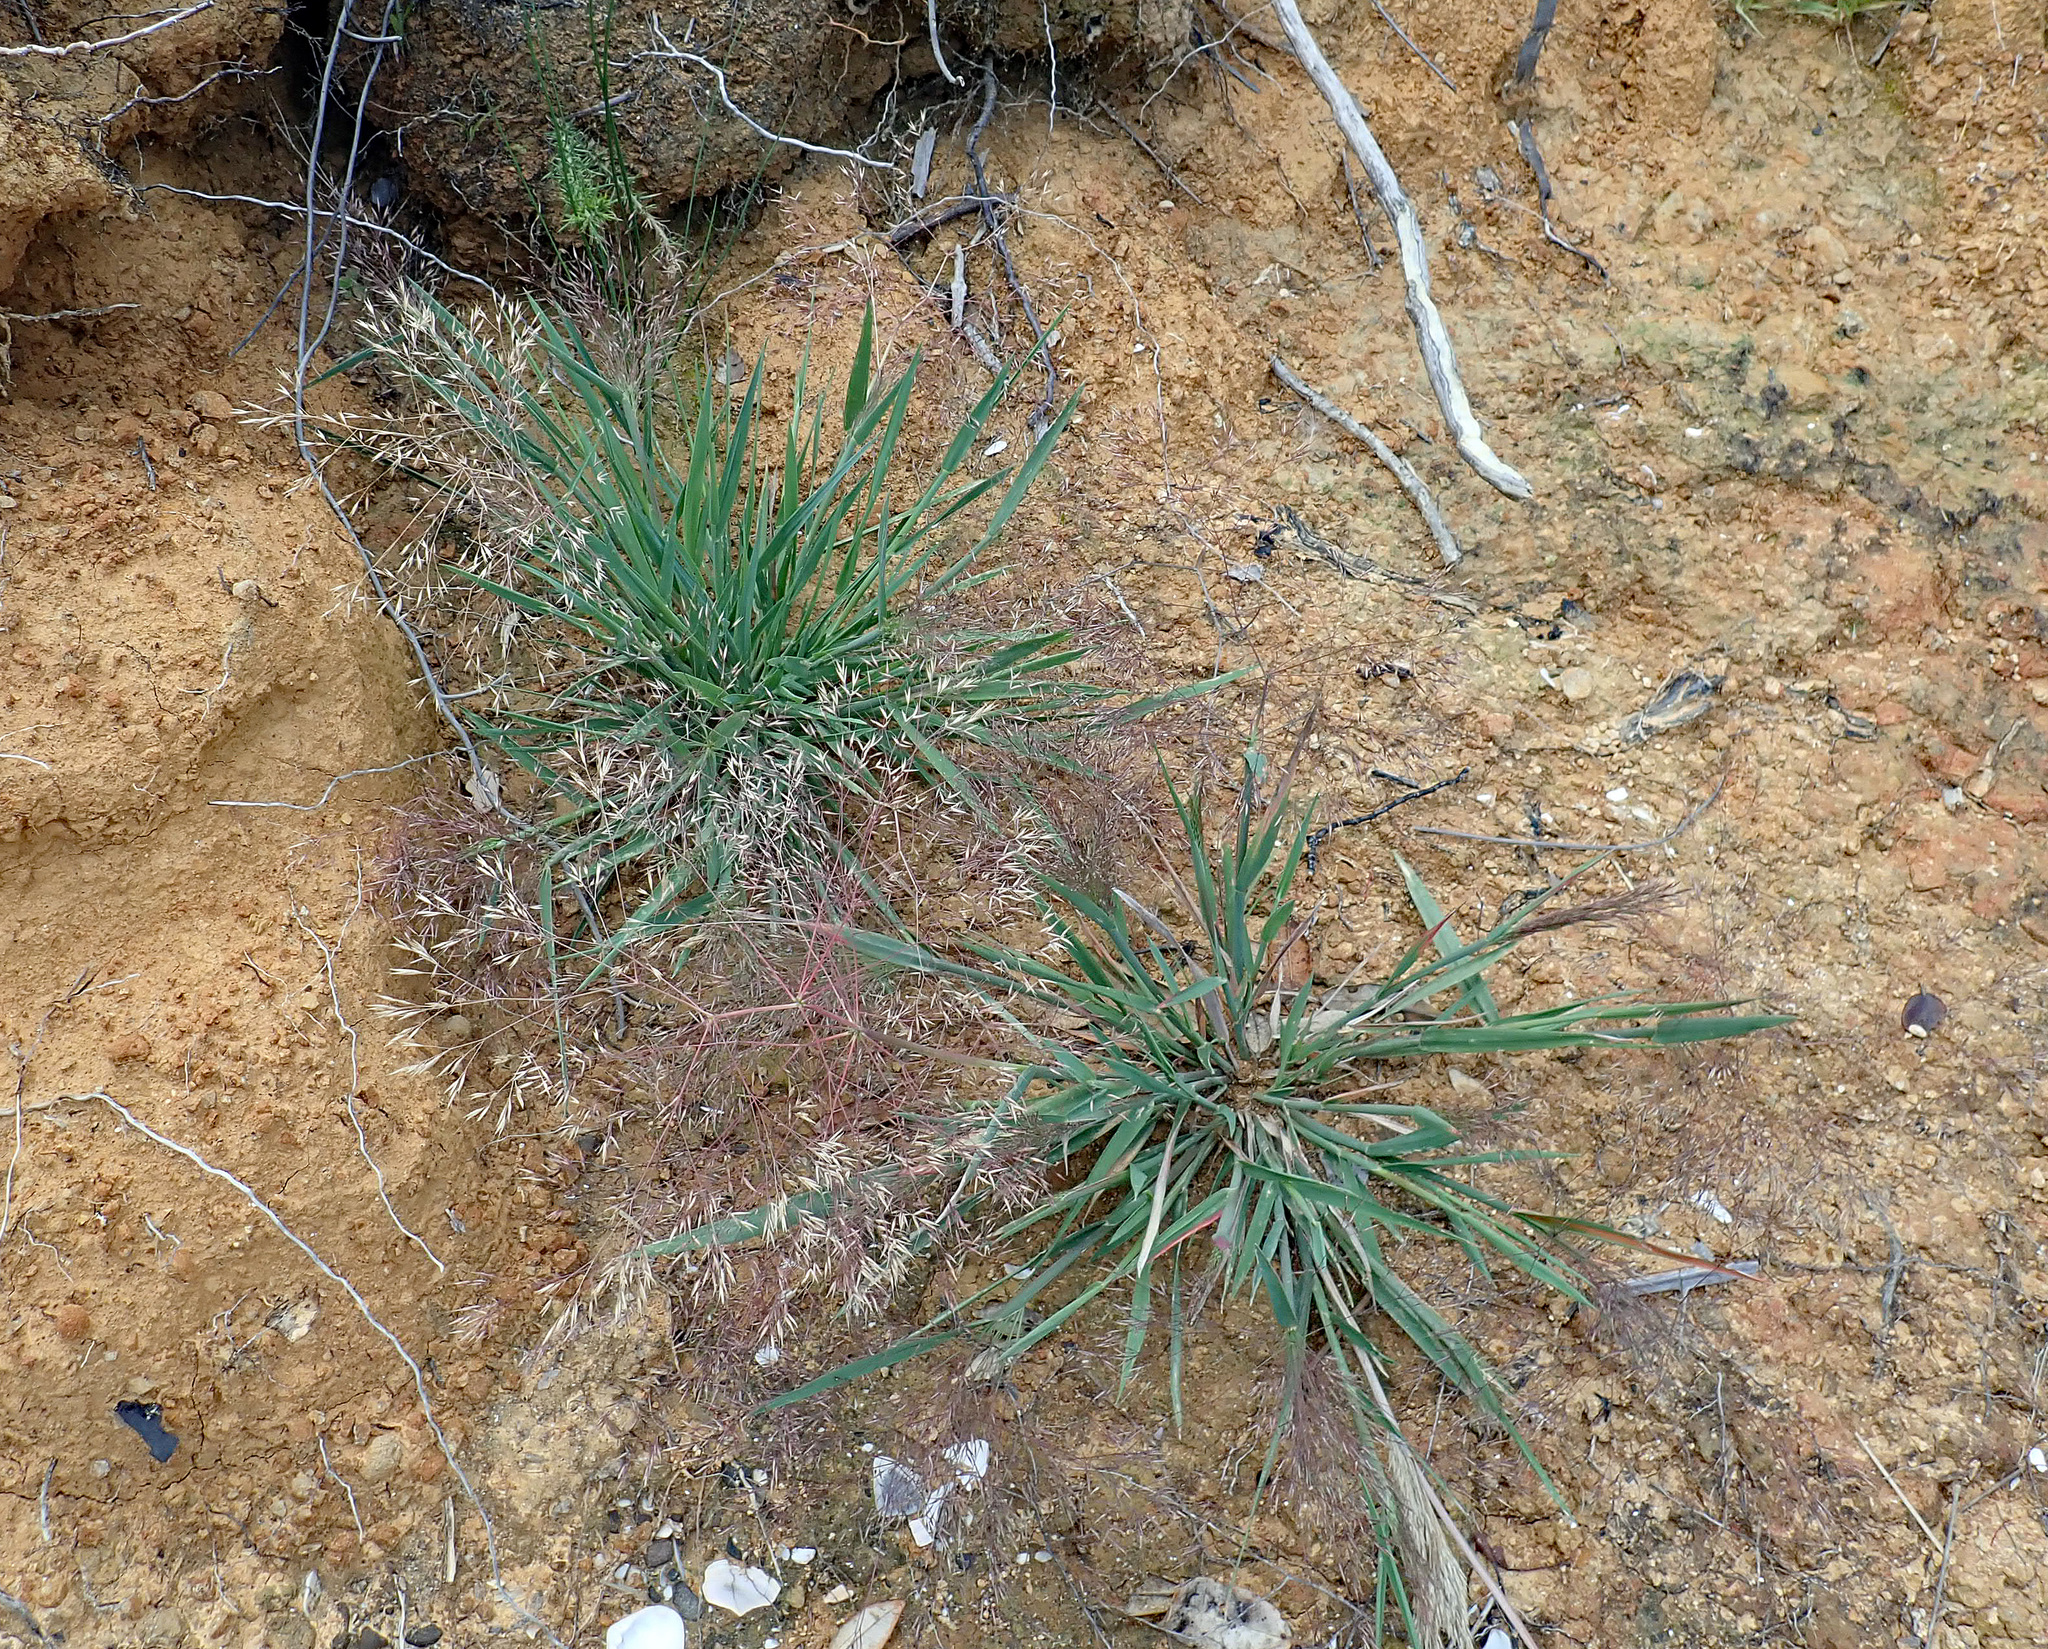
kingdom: Plantae
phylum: Tracheophyta
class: Liliopsida
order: Poales
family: Poaceae
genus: Lachnagrostis
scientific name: Lachnagrostis billardierei
